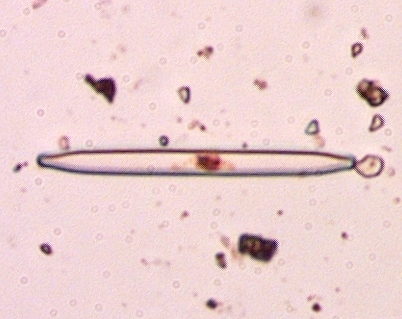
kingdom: Chromista
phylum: Ochrophyta
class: Bacillariophyceae
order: Fragilariales
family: Fragilariaceae
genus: Synedra
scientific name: Synedra ulna
